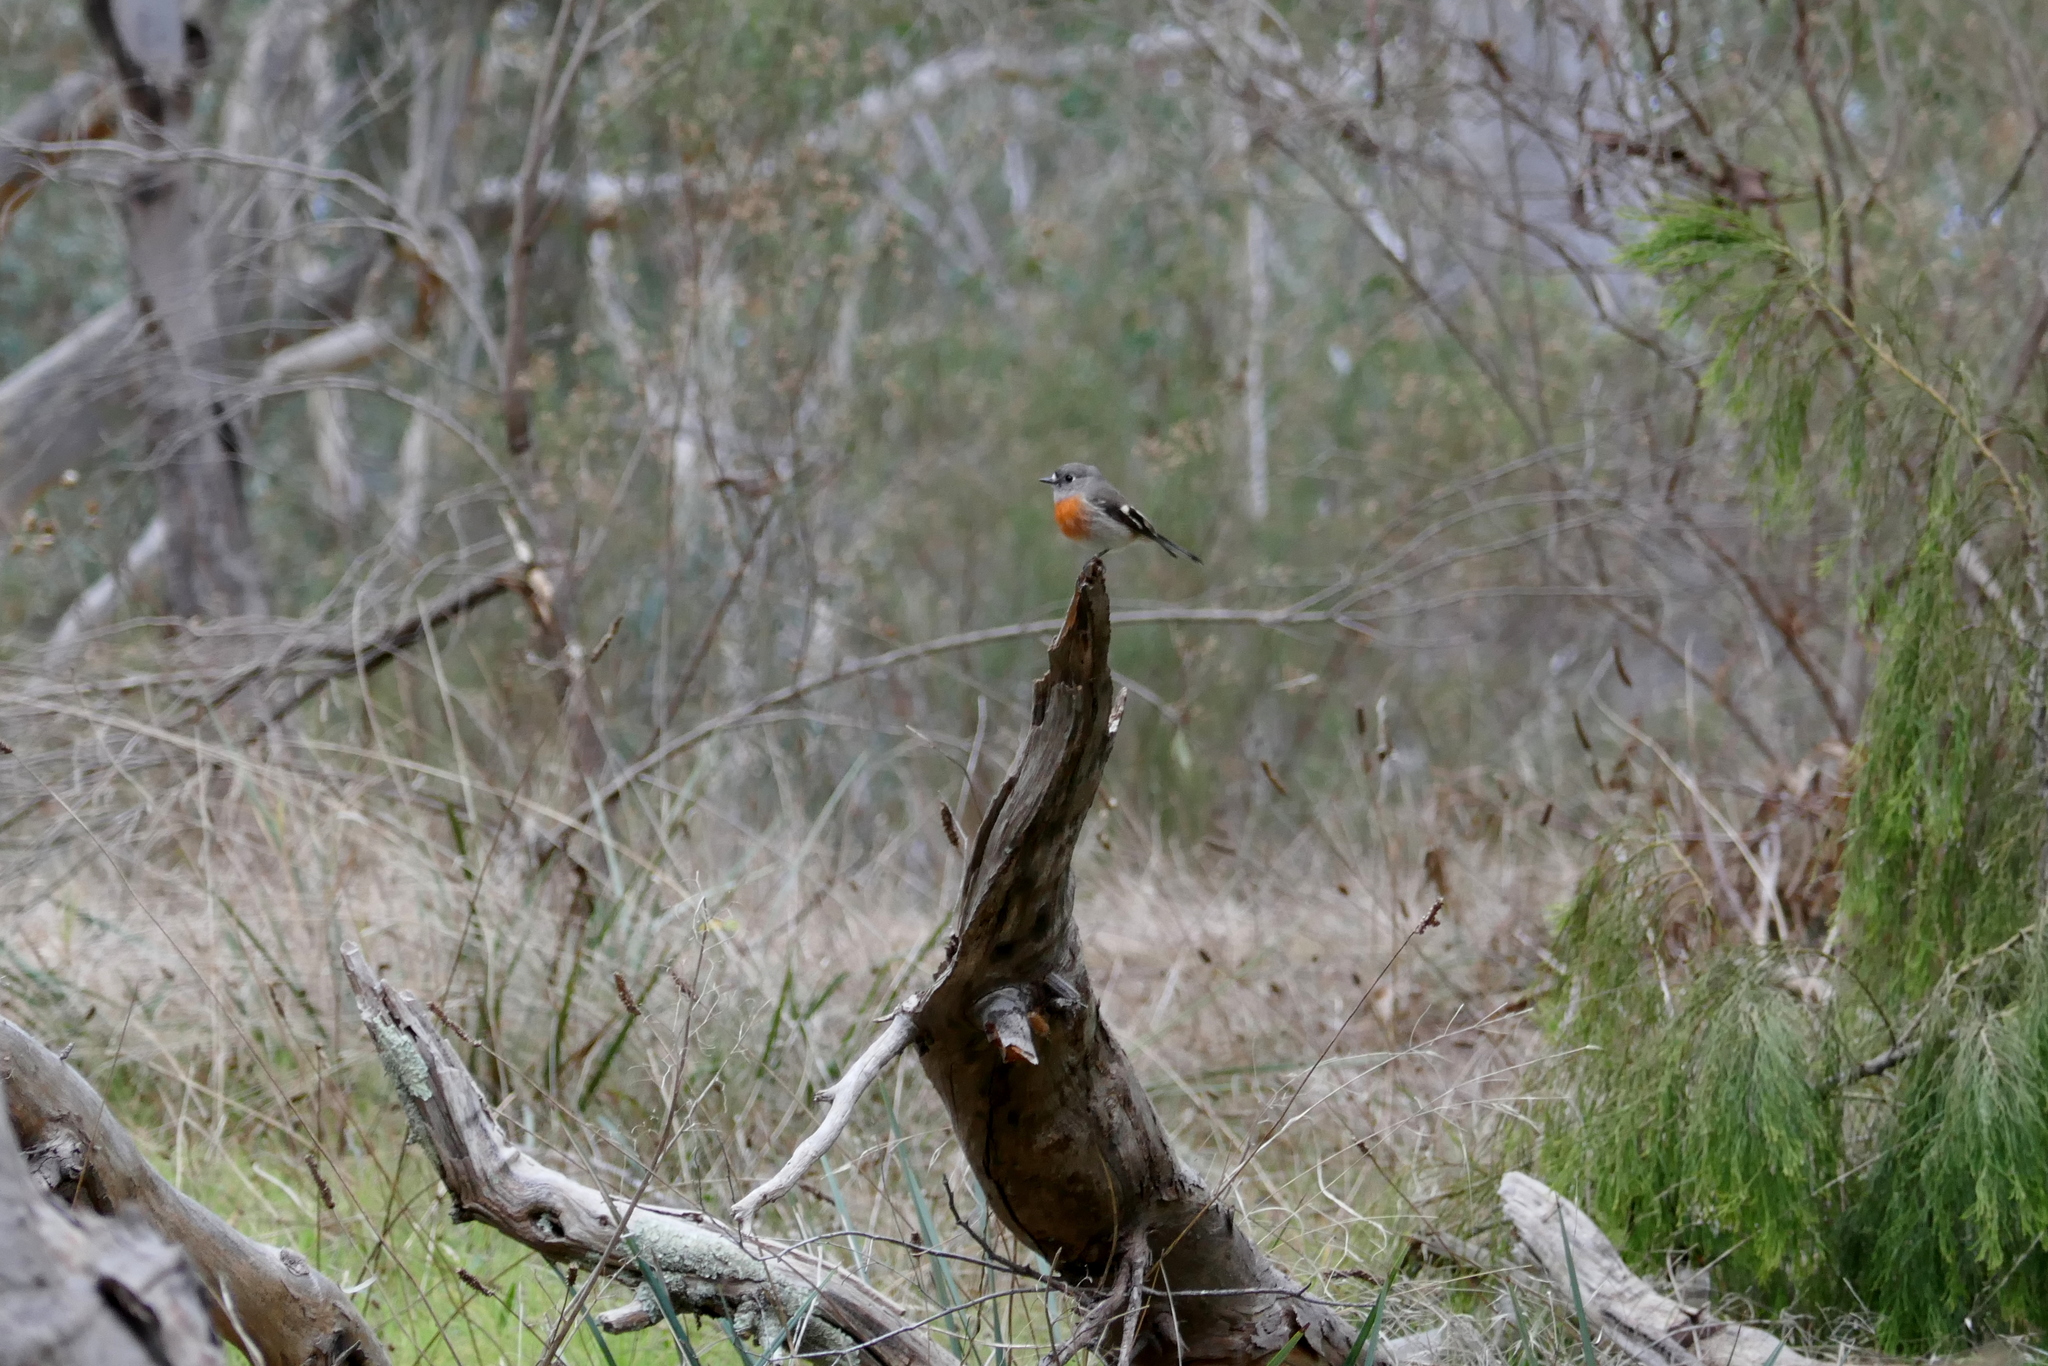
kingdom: Animalia
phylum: Chordata
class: Aves
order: Passeriformes
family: Petroicidae
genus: Petroica
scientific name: Petroica boodang
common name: Scarlet robin
